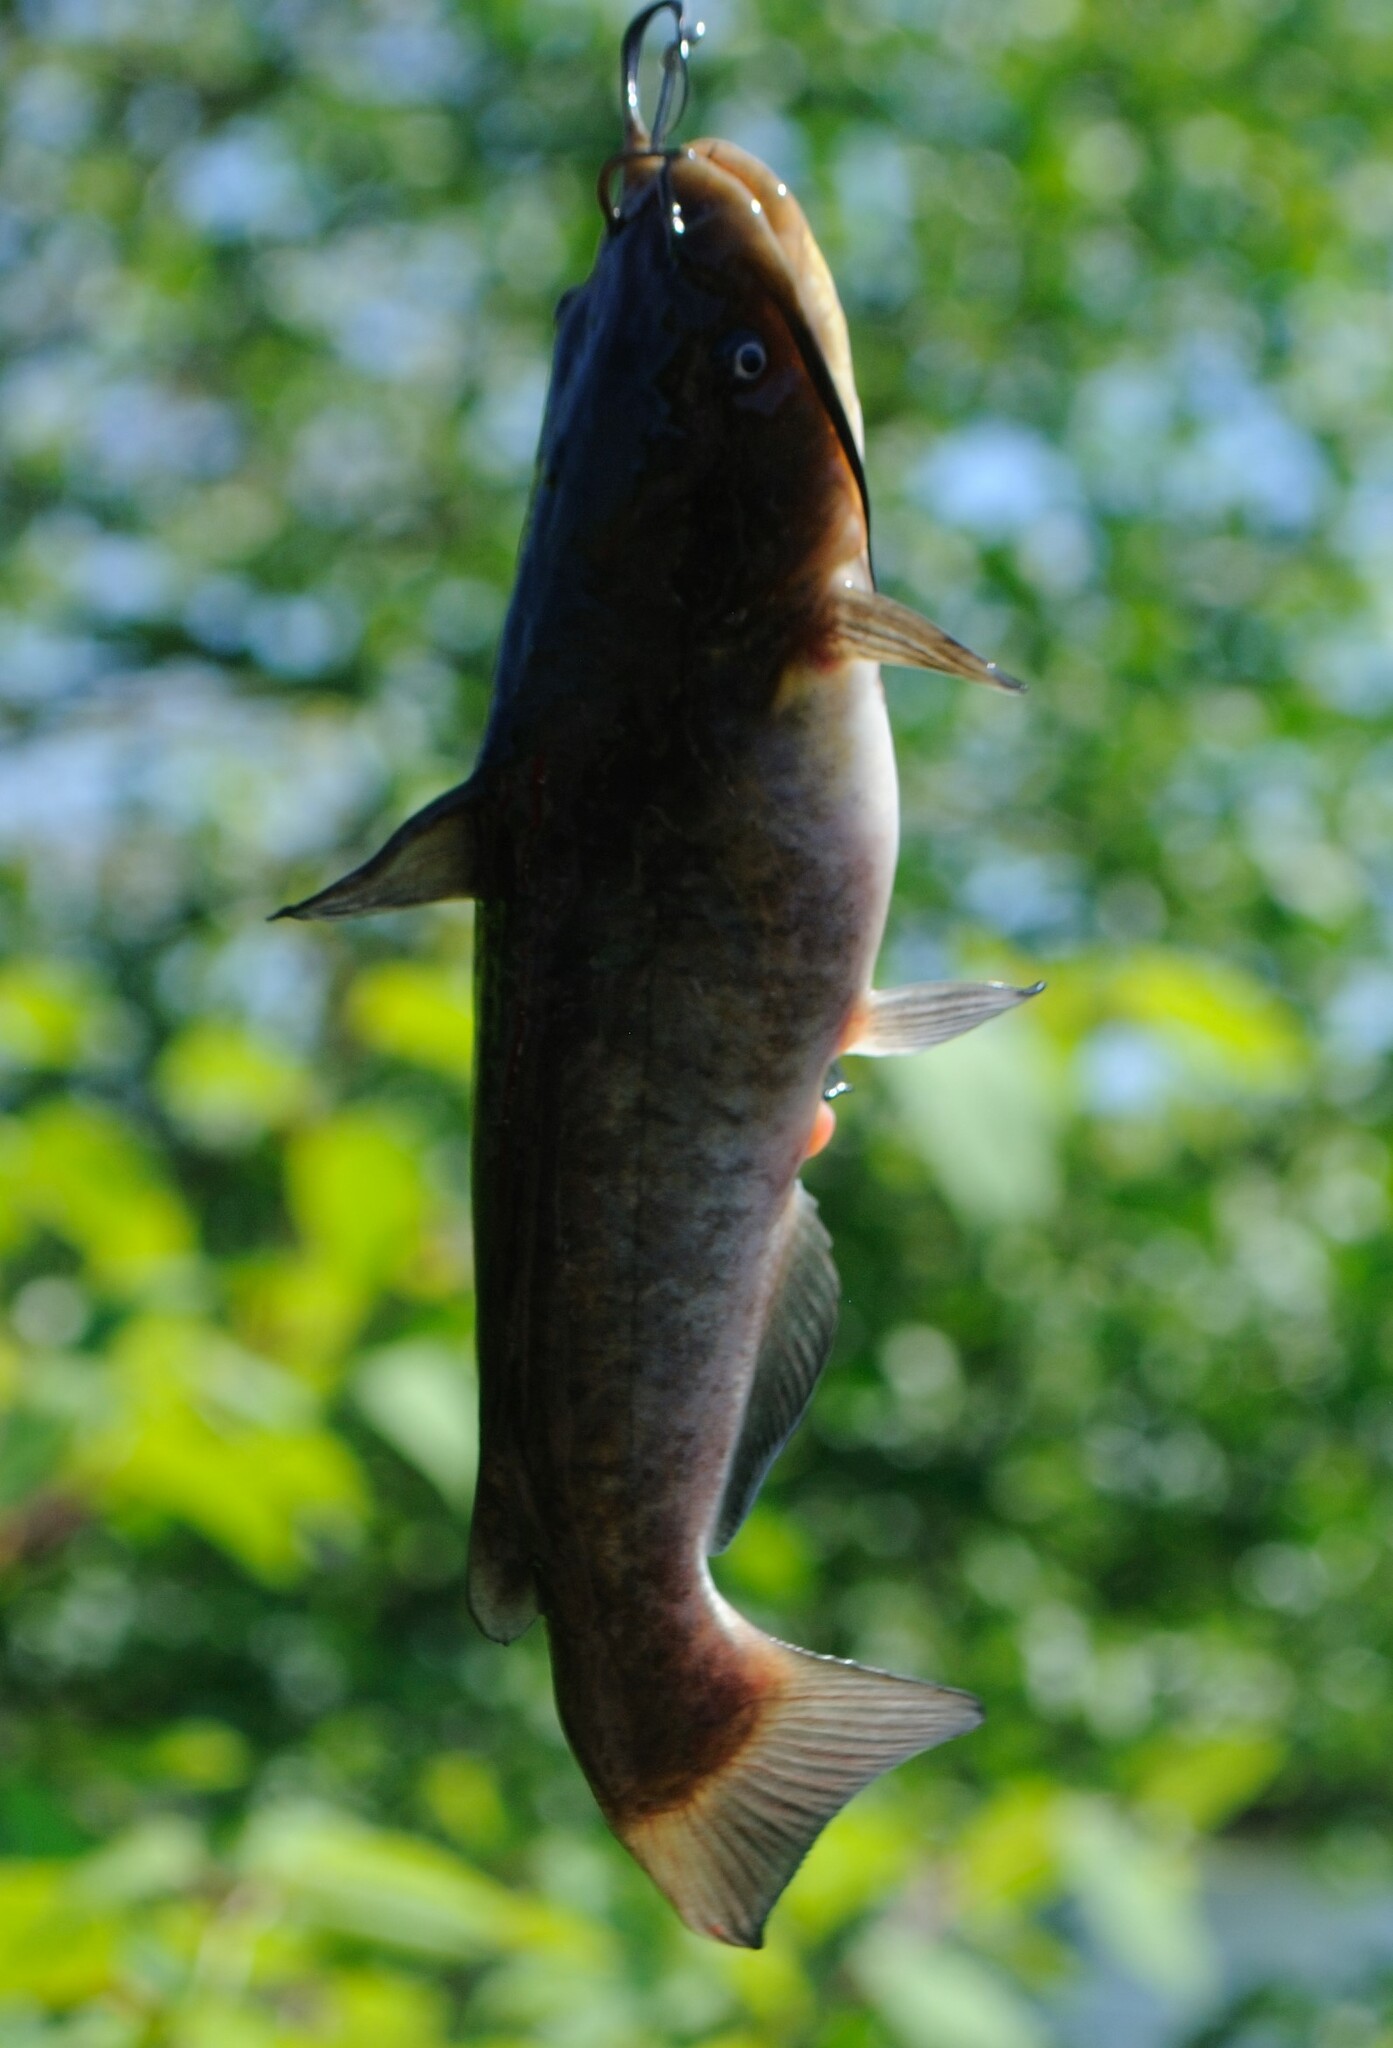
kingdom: Animalia
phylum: Chordata
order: Siluriformes
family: Ictaluridae
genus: Ameiurus
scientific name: Ameiurus nebulosus
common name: Brown bullhead
